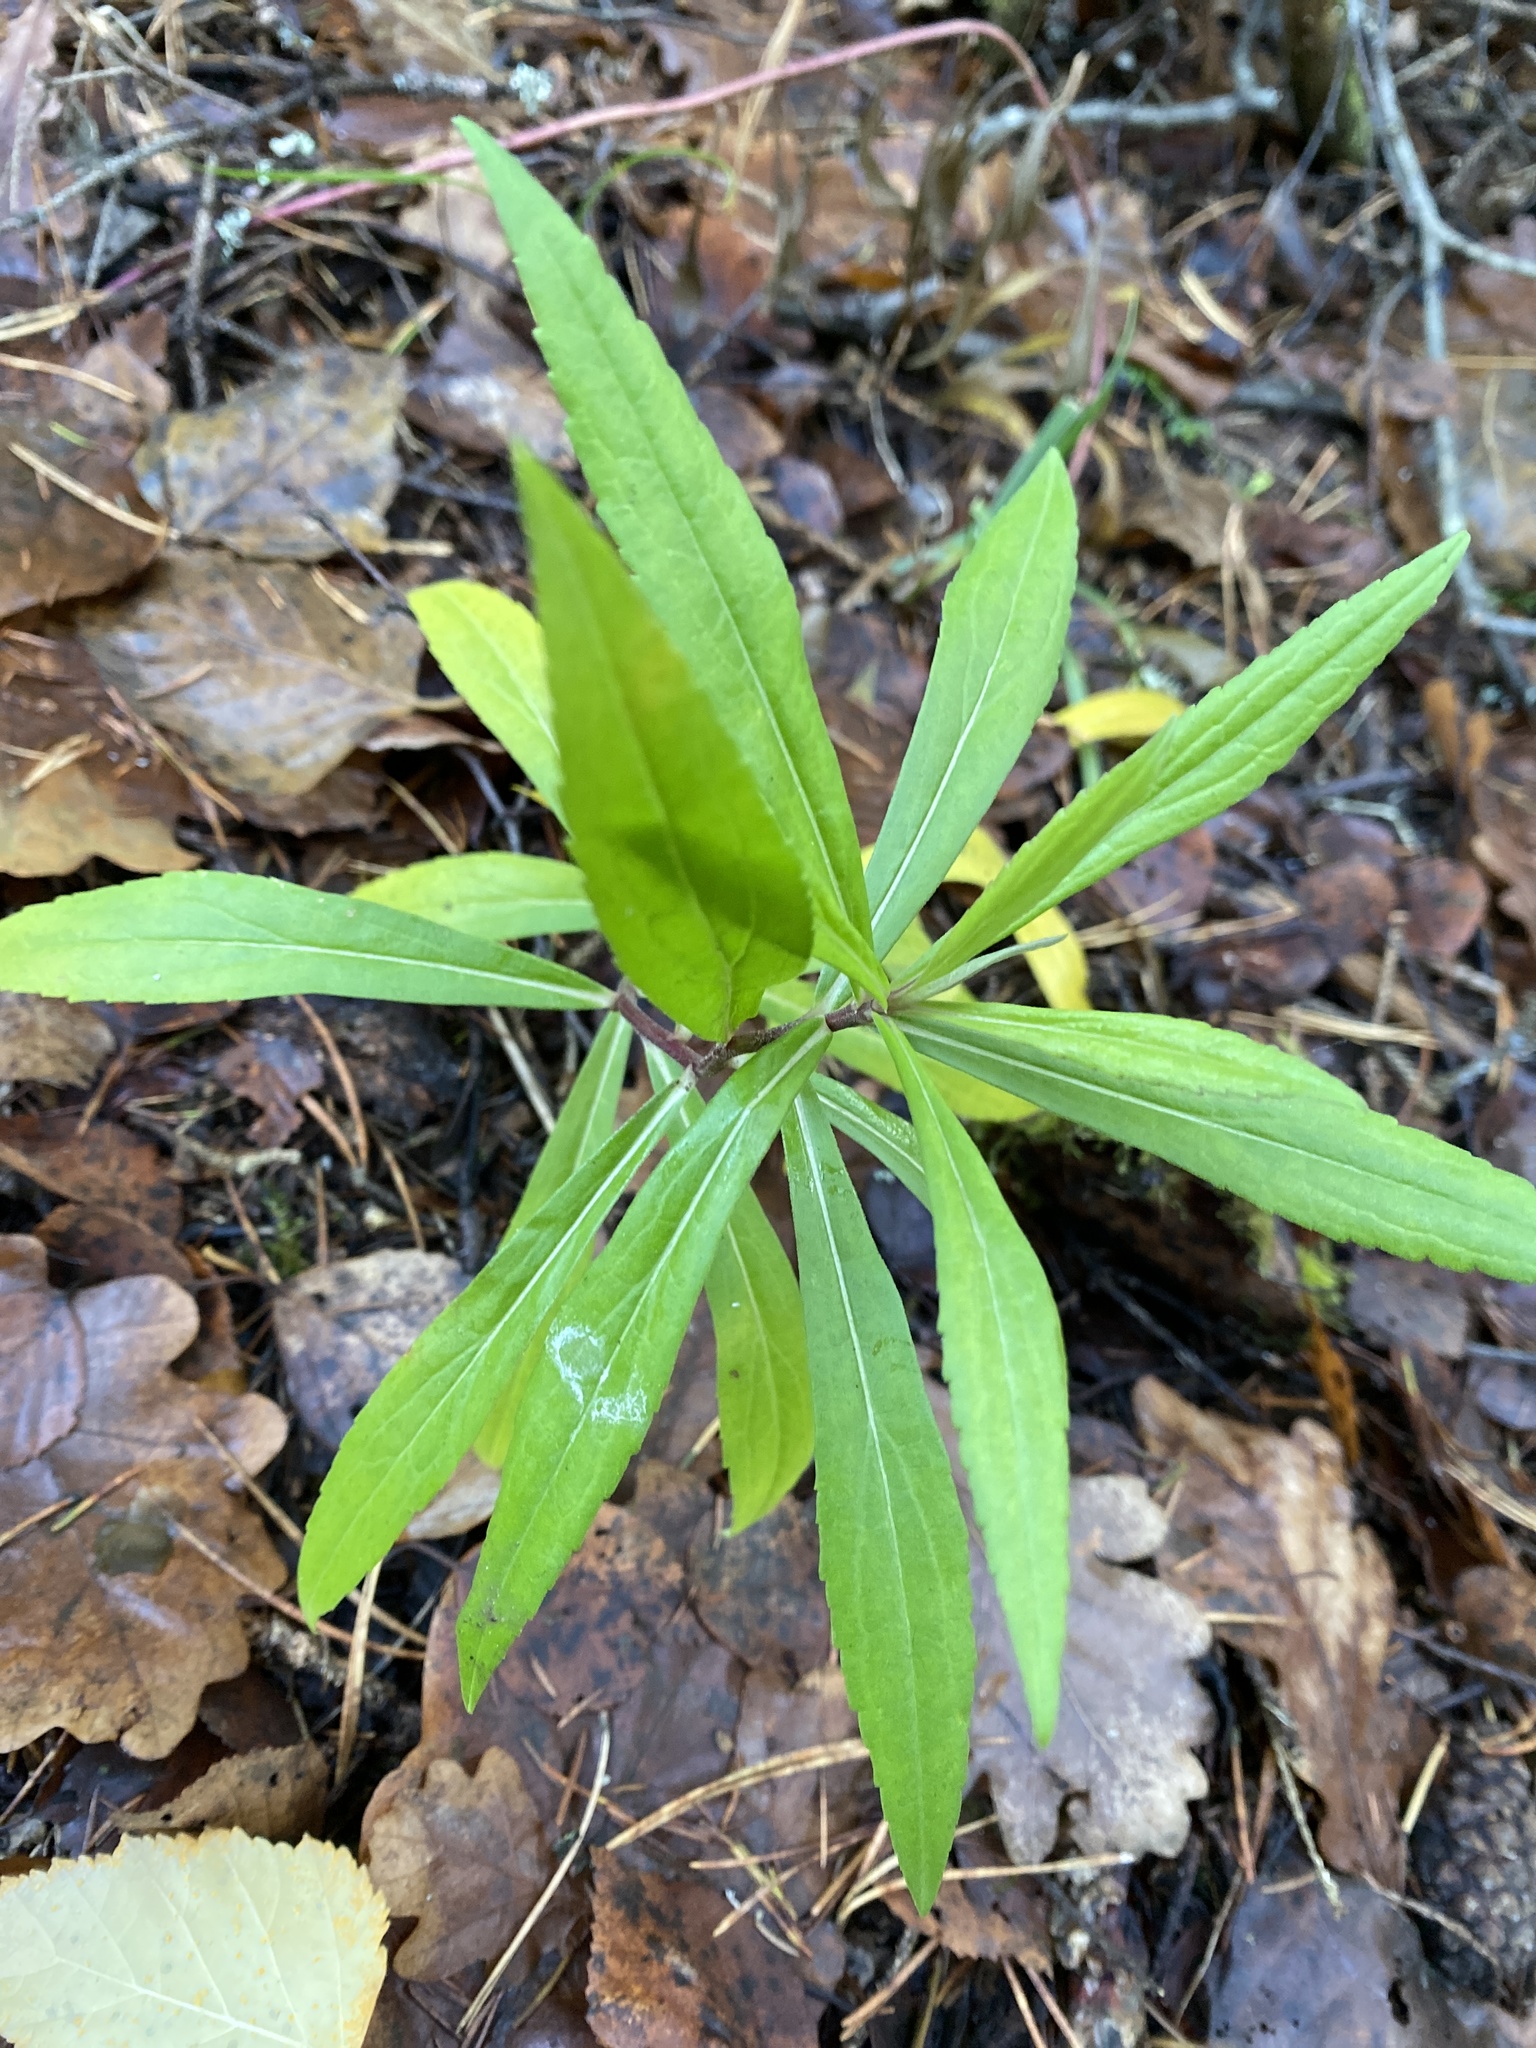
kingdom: Plantae
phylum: Tracheophyta
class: Magnoliopsida
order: Asterales
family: Asteraceae
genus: Solidago
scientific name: Solidago canadensis
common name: Canada goldenrod
